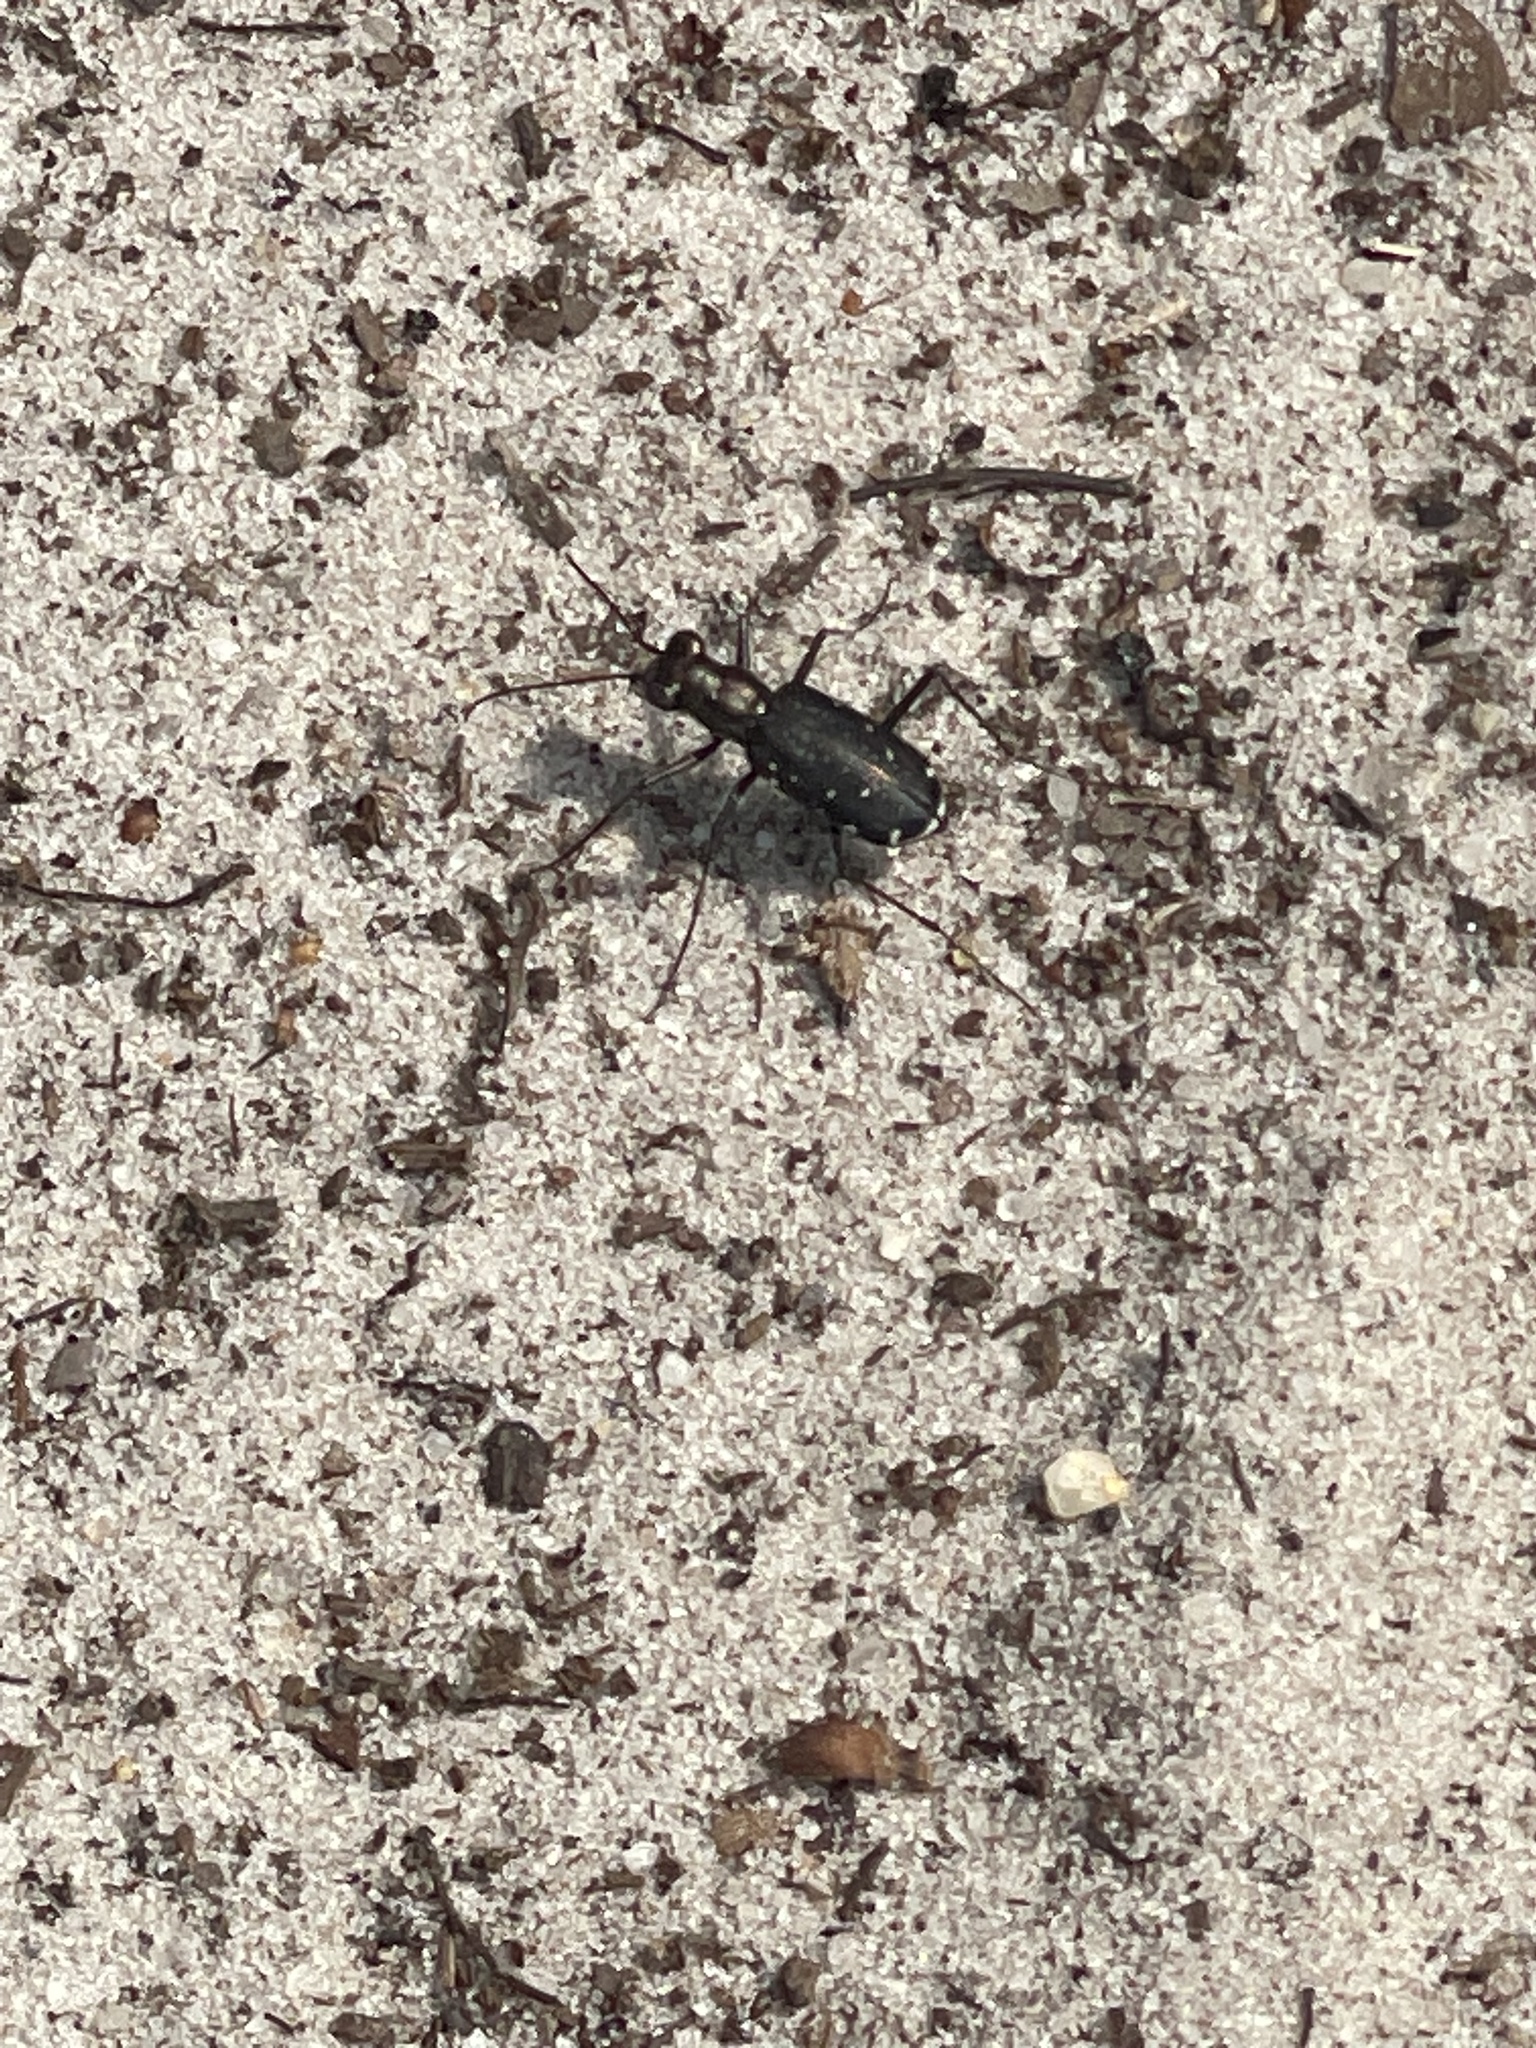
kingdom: Animalia
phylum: Arthropoda
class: Insecta
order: Coleoptera
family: Carabidae
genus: Cicindela
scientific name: Cicindela punctulata
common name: Punctured tiger beetle
